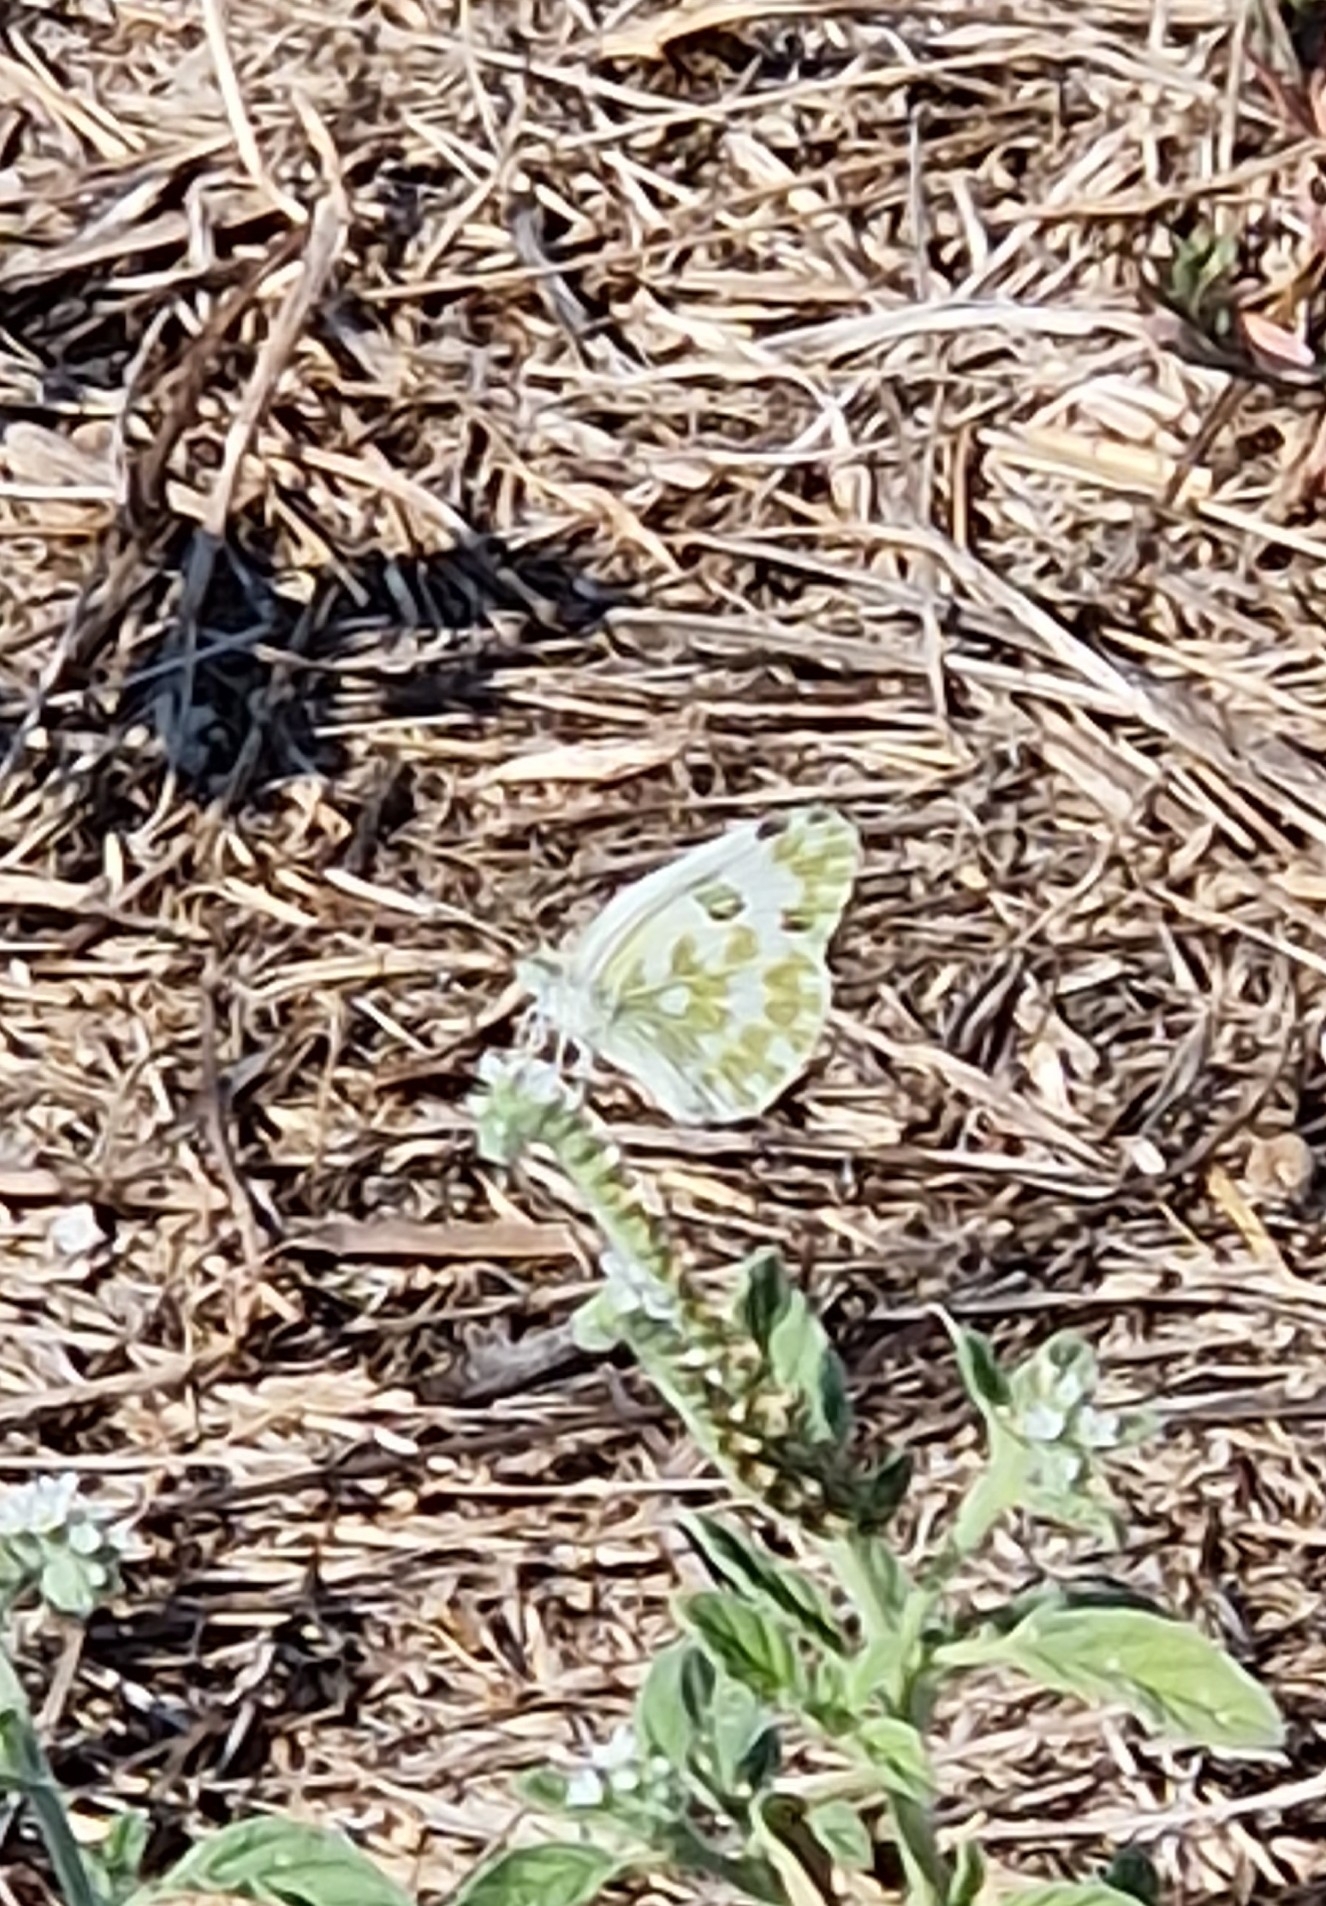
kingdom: Animalia
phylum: Arthropoda
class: Insecta
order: Lepidoptera
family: Pieridae
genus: Pontia
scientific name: Pontia edusa
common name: Eastern bath white
